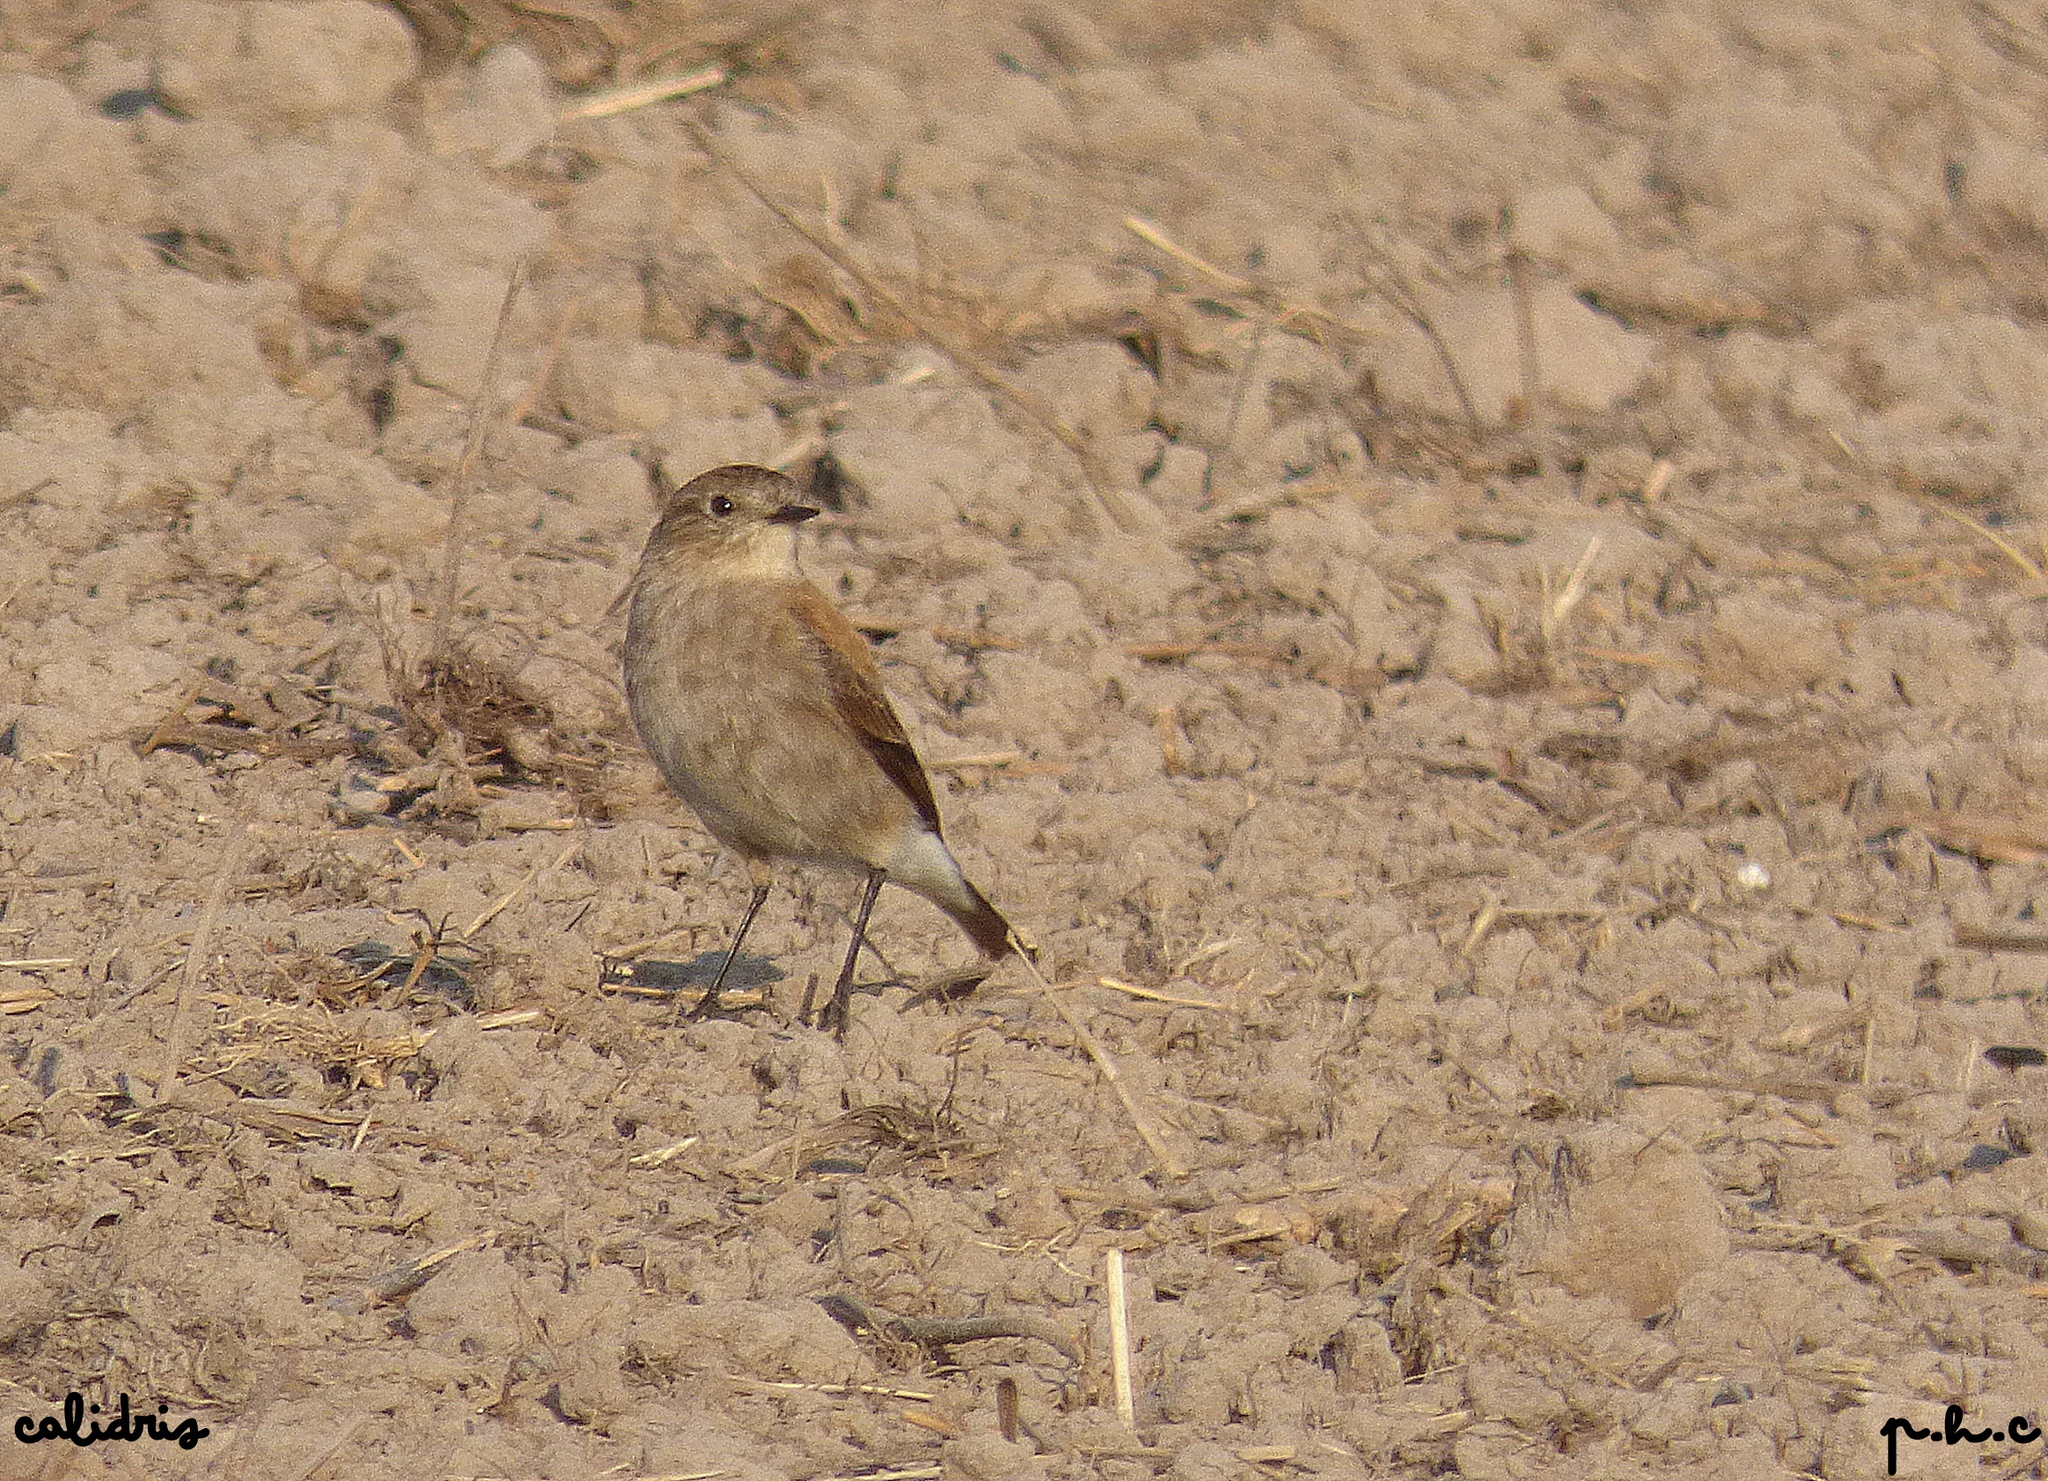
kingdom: Animalia
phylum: Chordata
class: Aves
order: Passeriformes
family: Tyrannidae
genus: Lessonia
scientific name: Lessonia rufa
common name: Austral negrito
